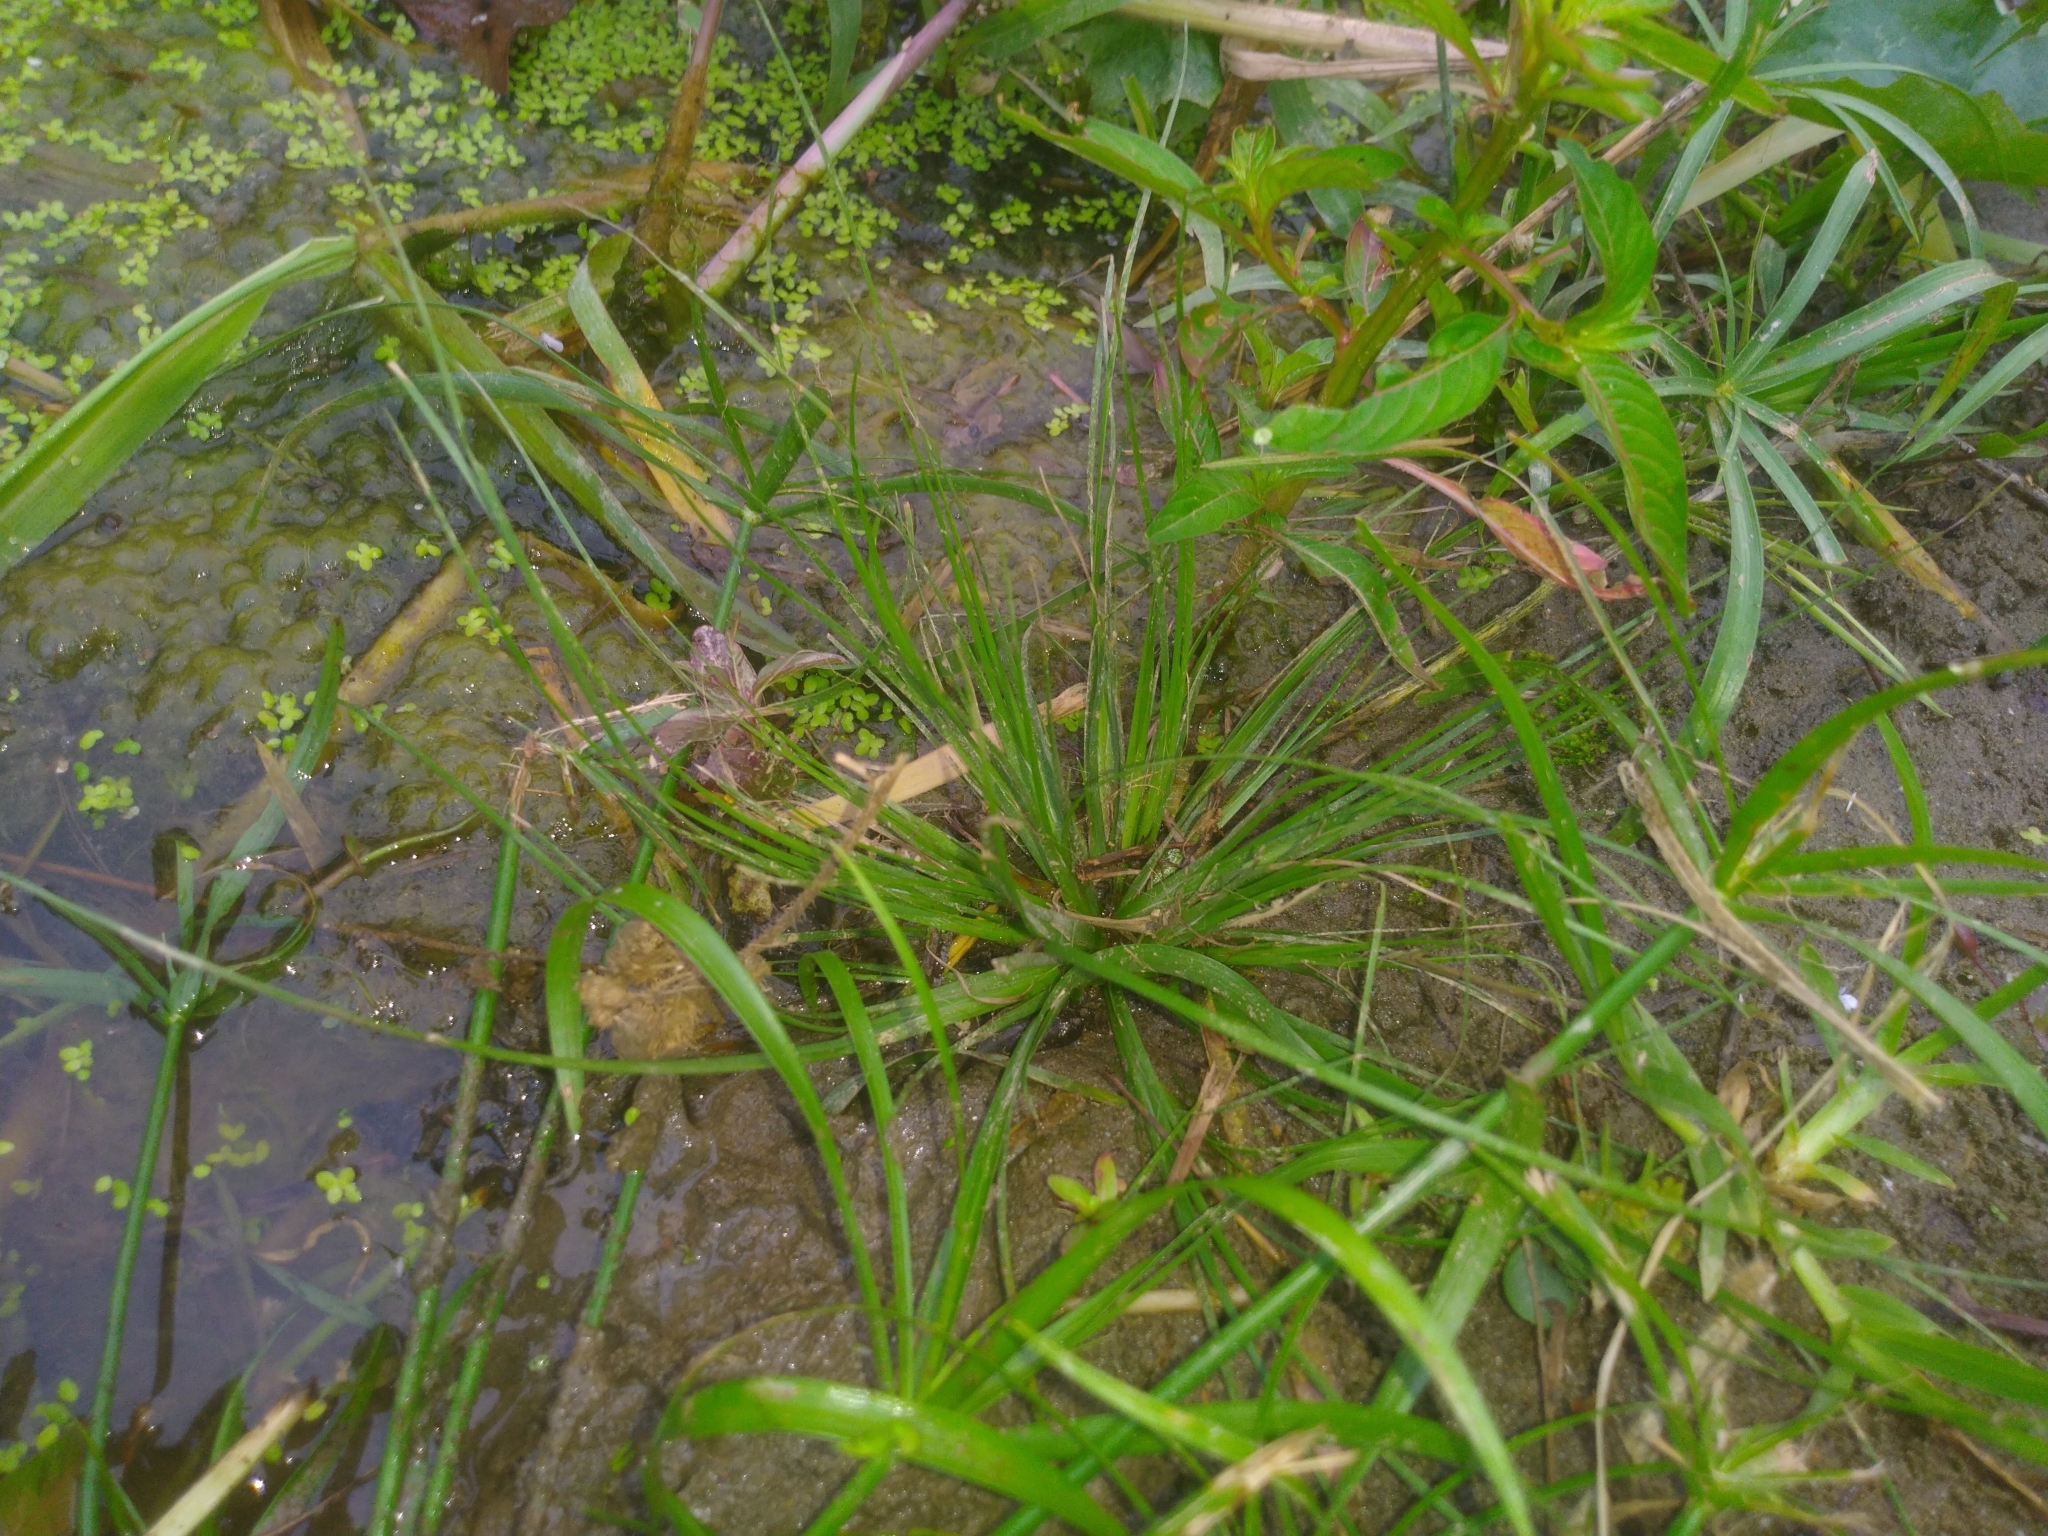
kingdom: Plantae
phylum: Tracheophyta
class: Liliopsida
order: Poales
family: Cyperaceae
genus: Fimbristylis
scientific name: Fimbristylis littoralis
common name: Fimbry
